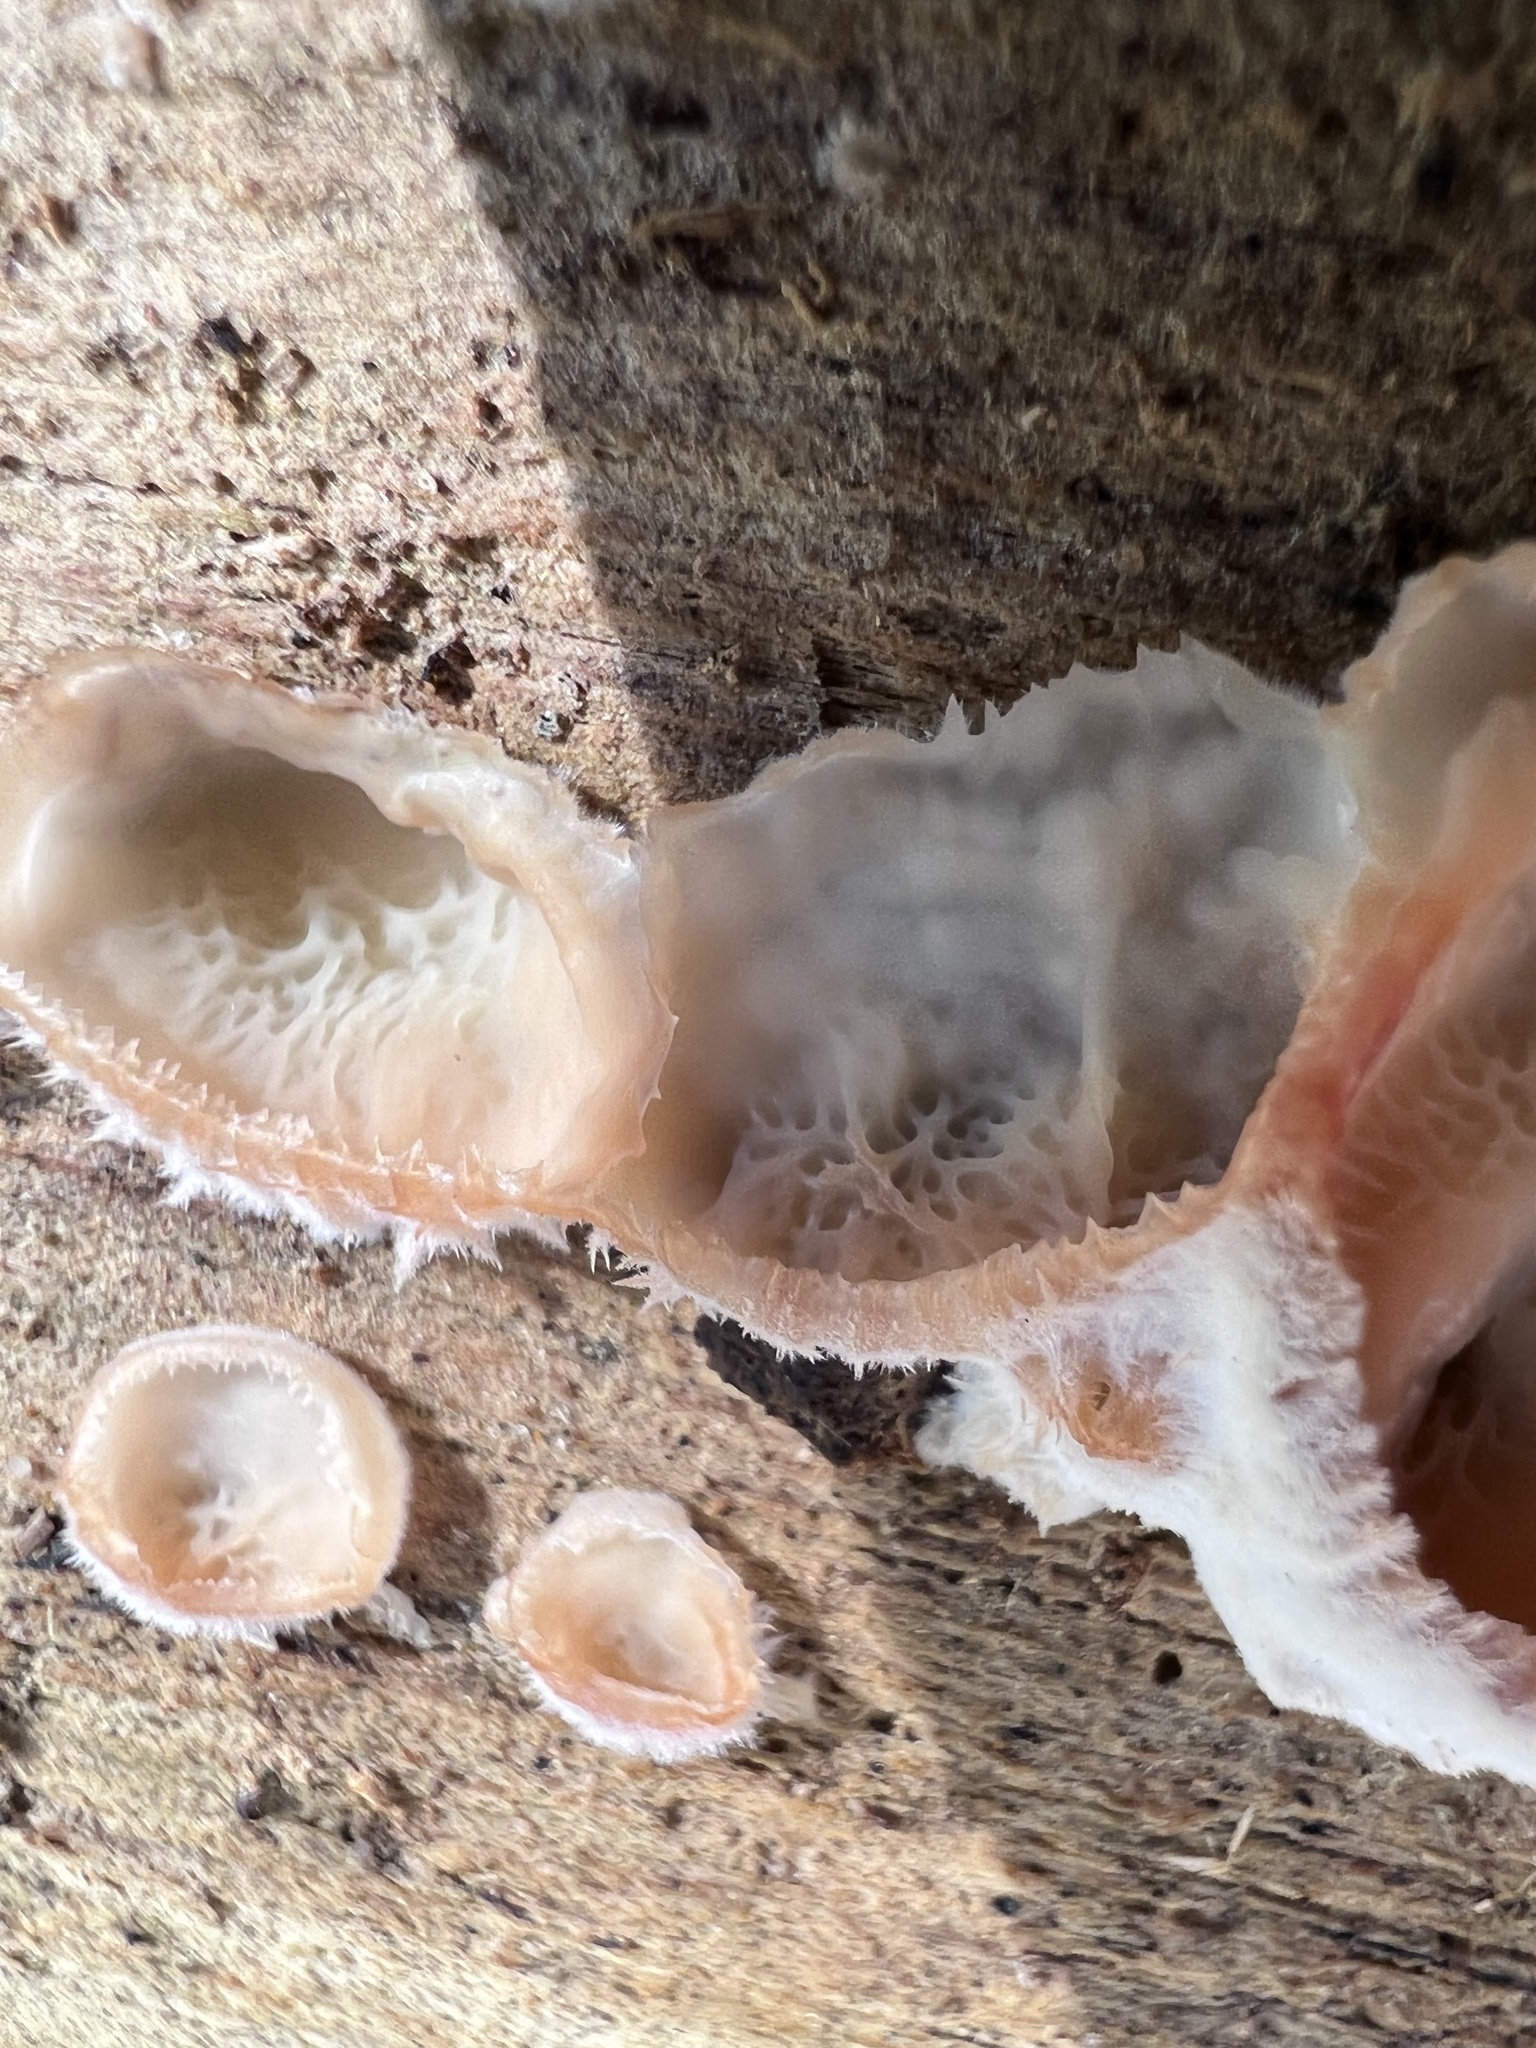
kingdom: Fungi
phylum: Basidiomycota
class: Agaricomycetes
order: Polyporales
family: Meruliaceae
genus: Phlebia
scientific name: Phlebia tremellosa
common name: Jelly rot
